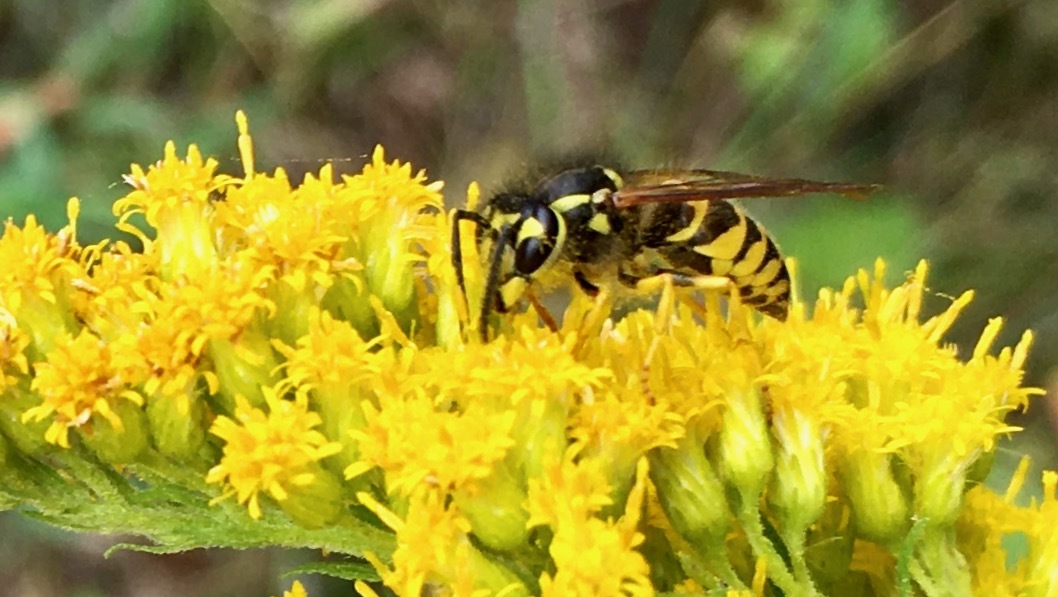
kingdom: Animalia
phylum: Arthropoda
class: Insecta
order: Hymenoptera
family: Vespidae
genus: Vespula
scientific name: Vespula
